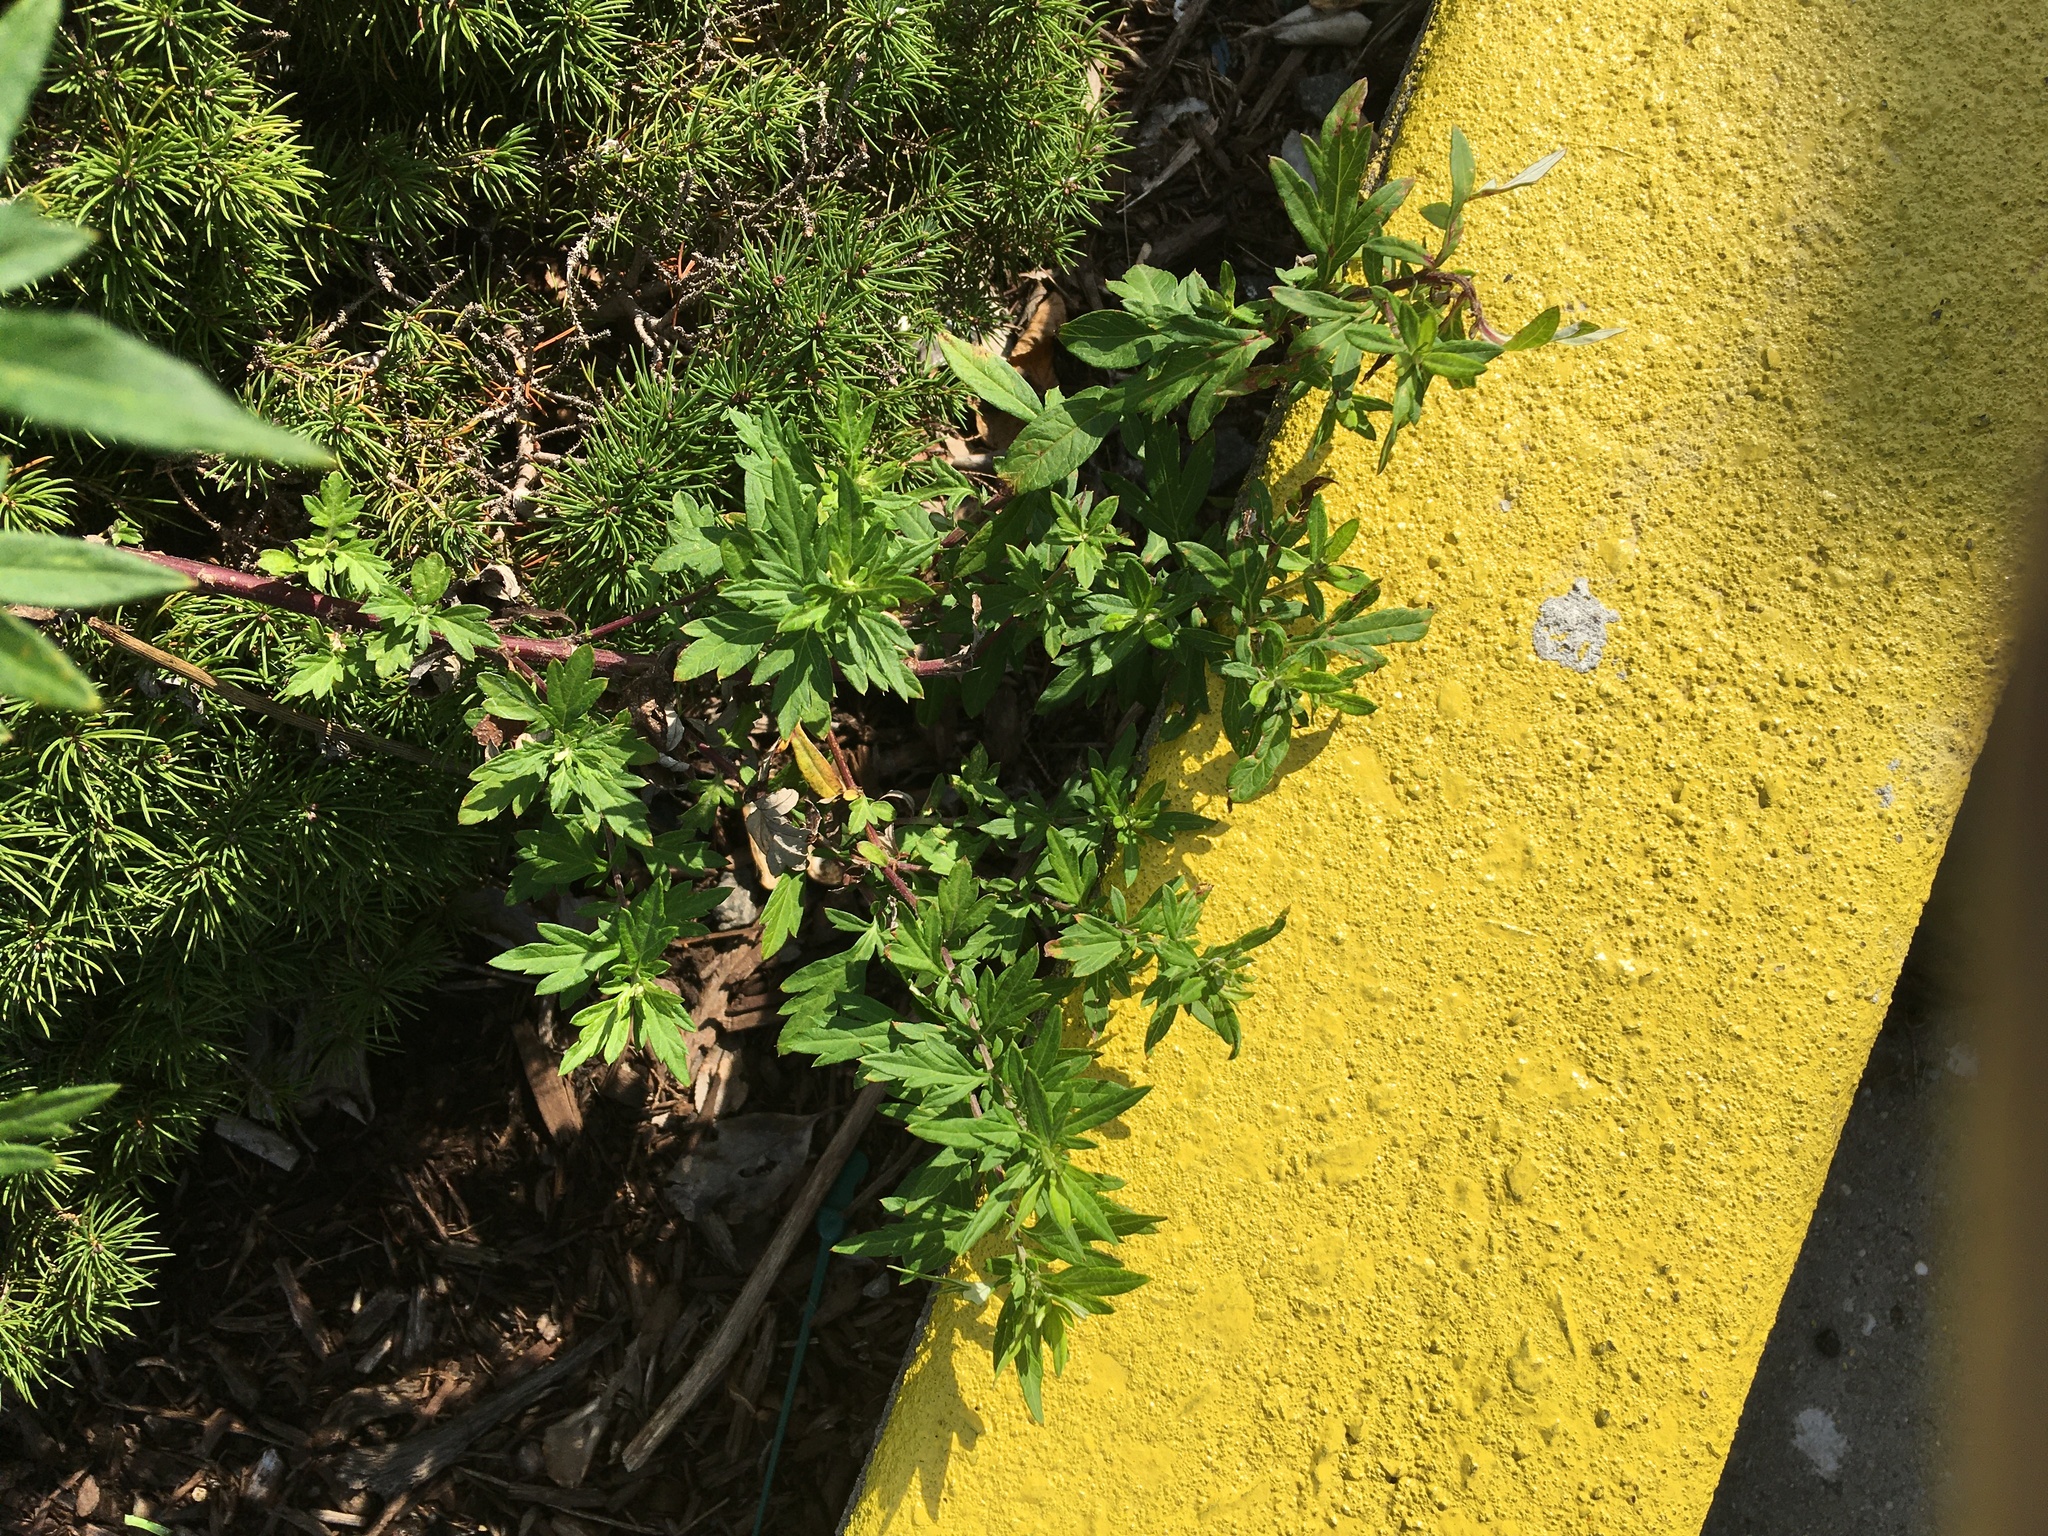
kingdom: Plantae
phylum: Tracheophyta
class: Magnoliopsida
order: Asterales
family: Asteraceae
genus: Artemisia
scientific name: Artemisia vulgaris
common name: Mugwort
